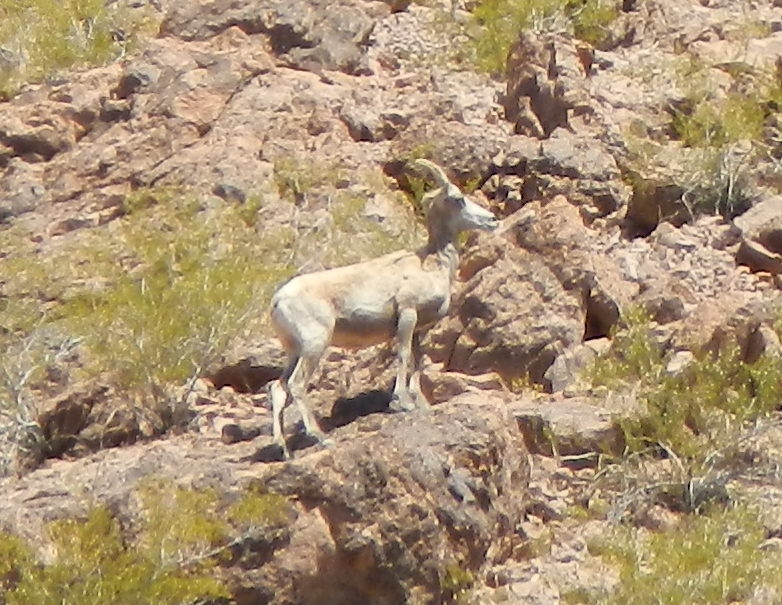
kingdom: Animalia
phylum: Chordata
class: Mammalia
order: Artiodactyla
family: Bovidae
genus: Ovis
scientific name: Ovis canadensis
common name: Bighorn sheep
